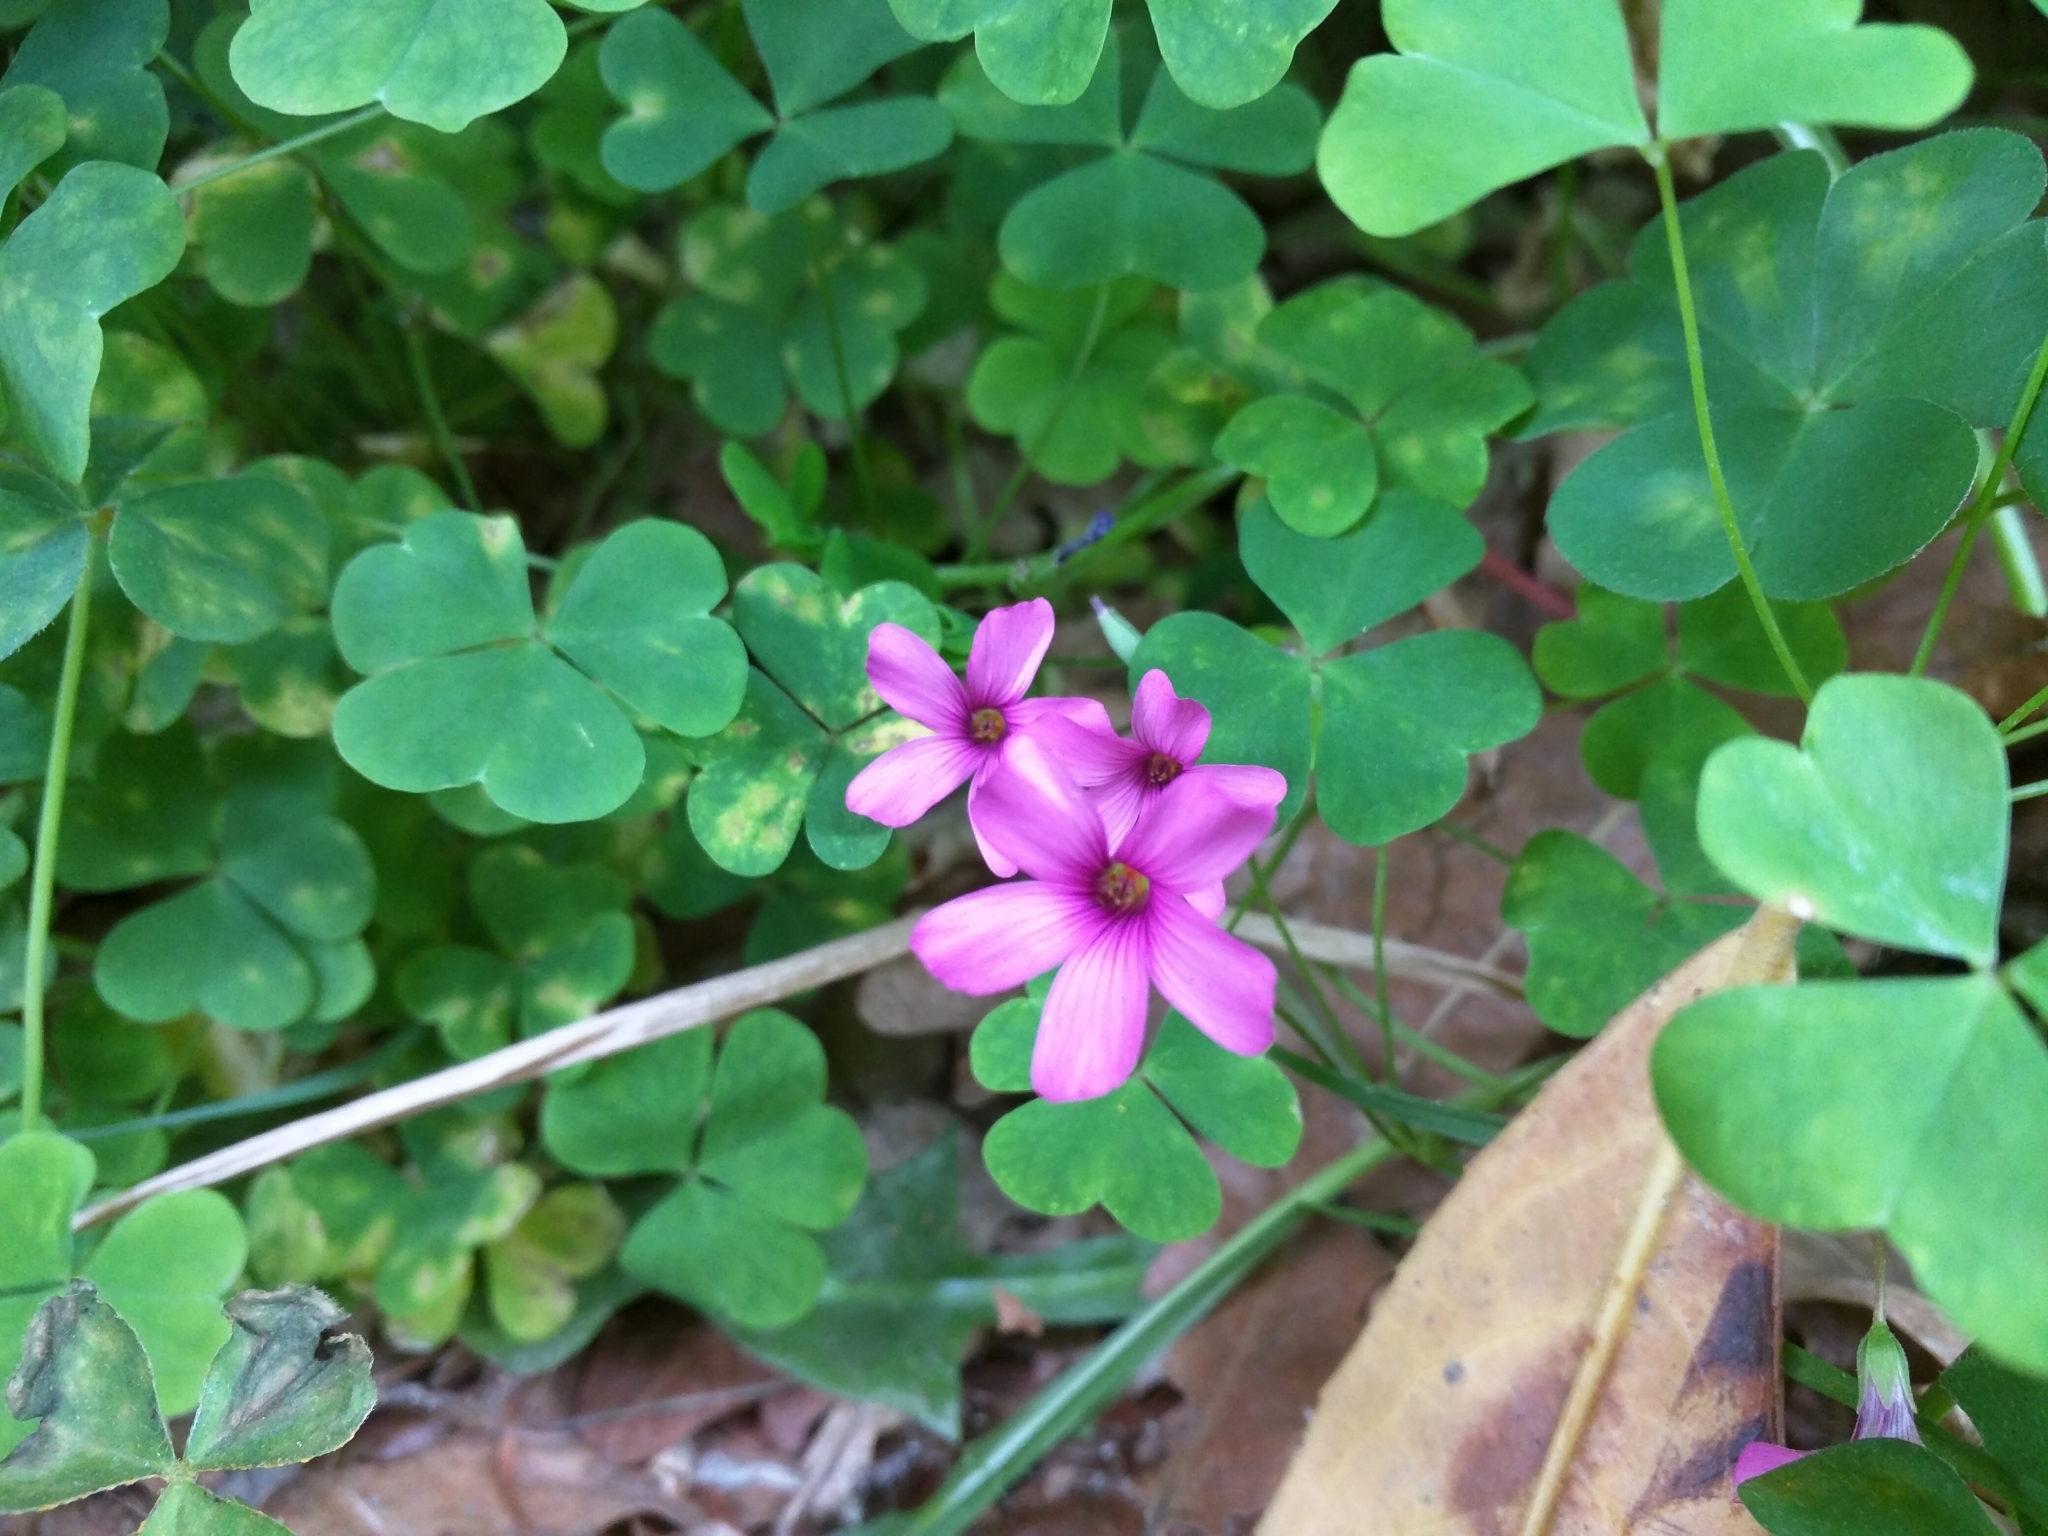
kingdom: Plantae
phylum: Tracheophyta
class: Magnoliopsida
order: Oxalidales
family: Oxalidaceae
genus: Oxalis
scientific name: Oxalis articulata
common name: Pink-sorrel
